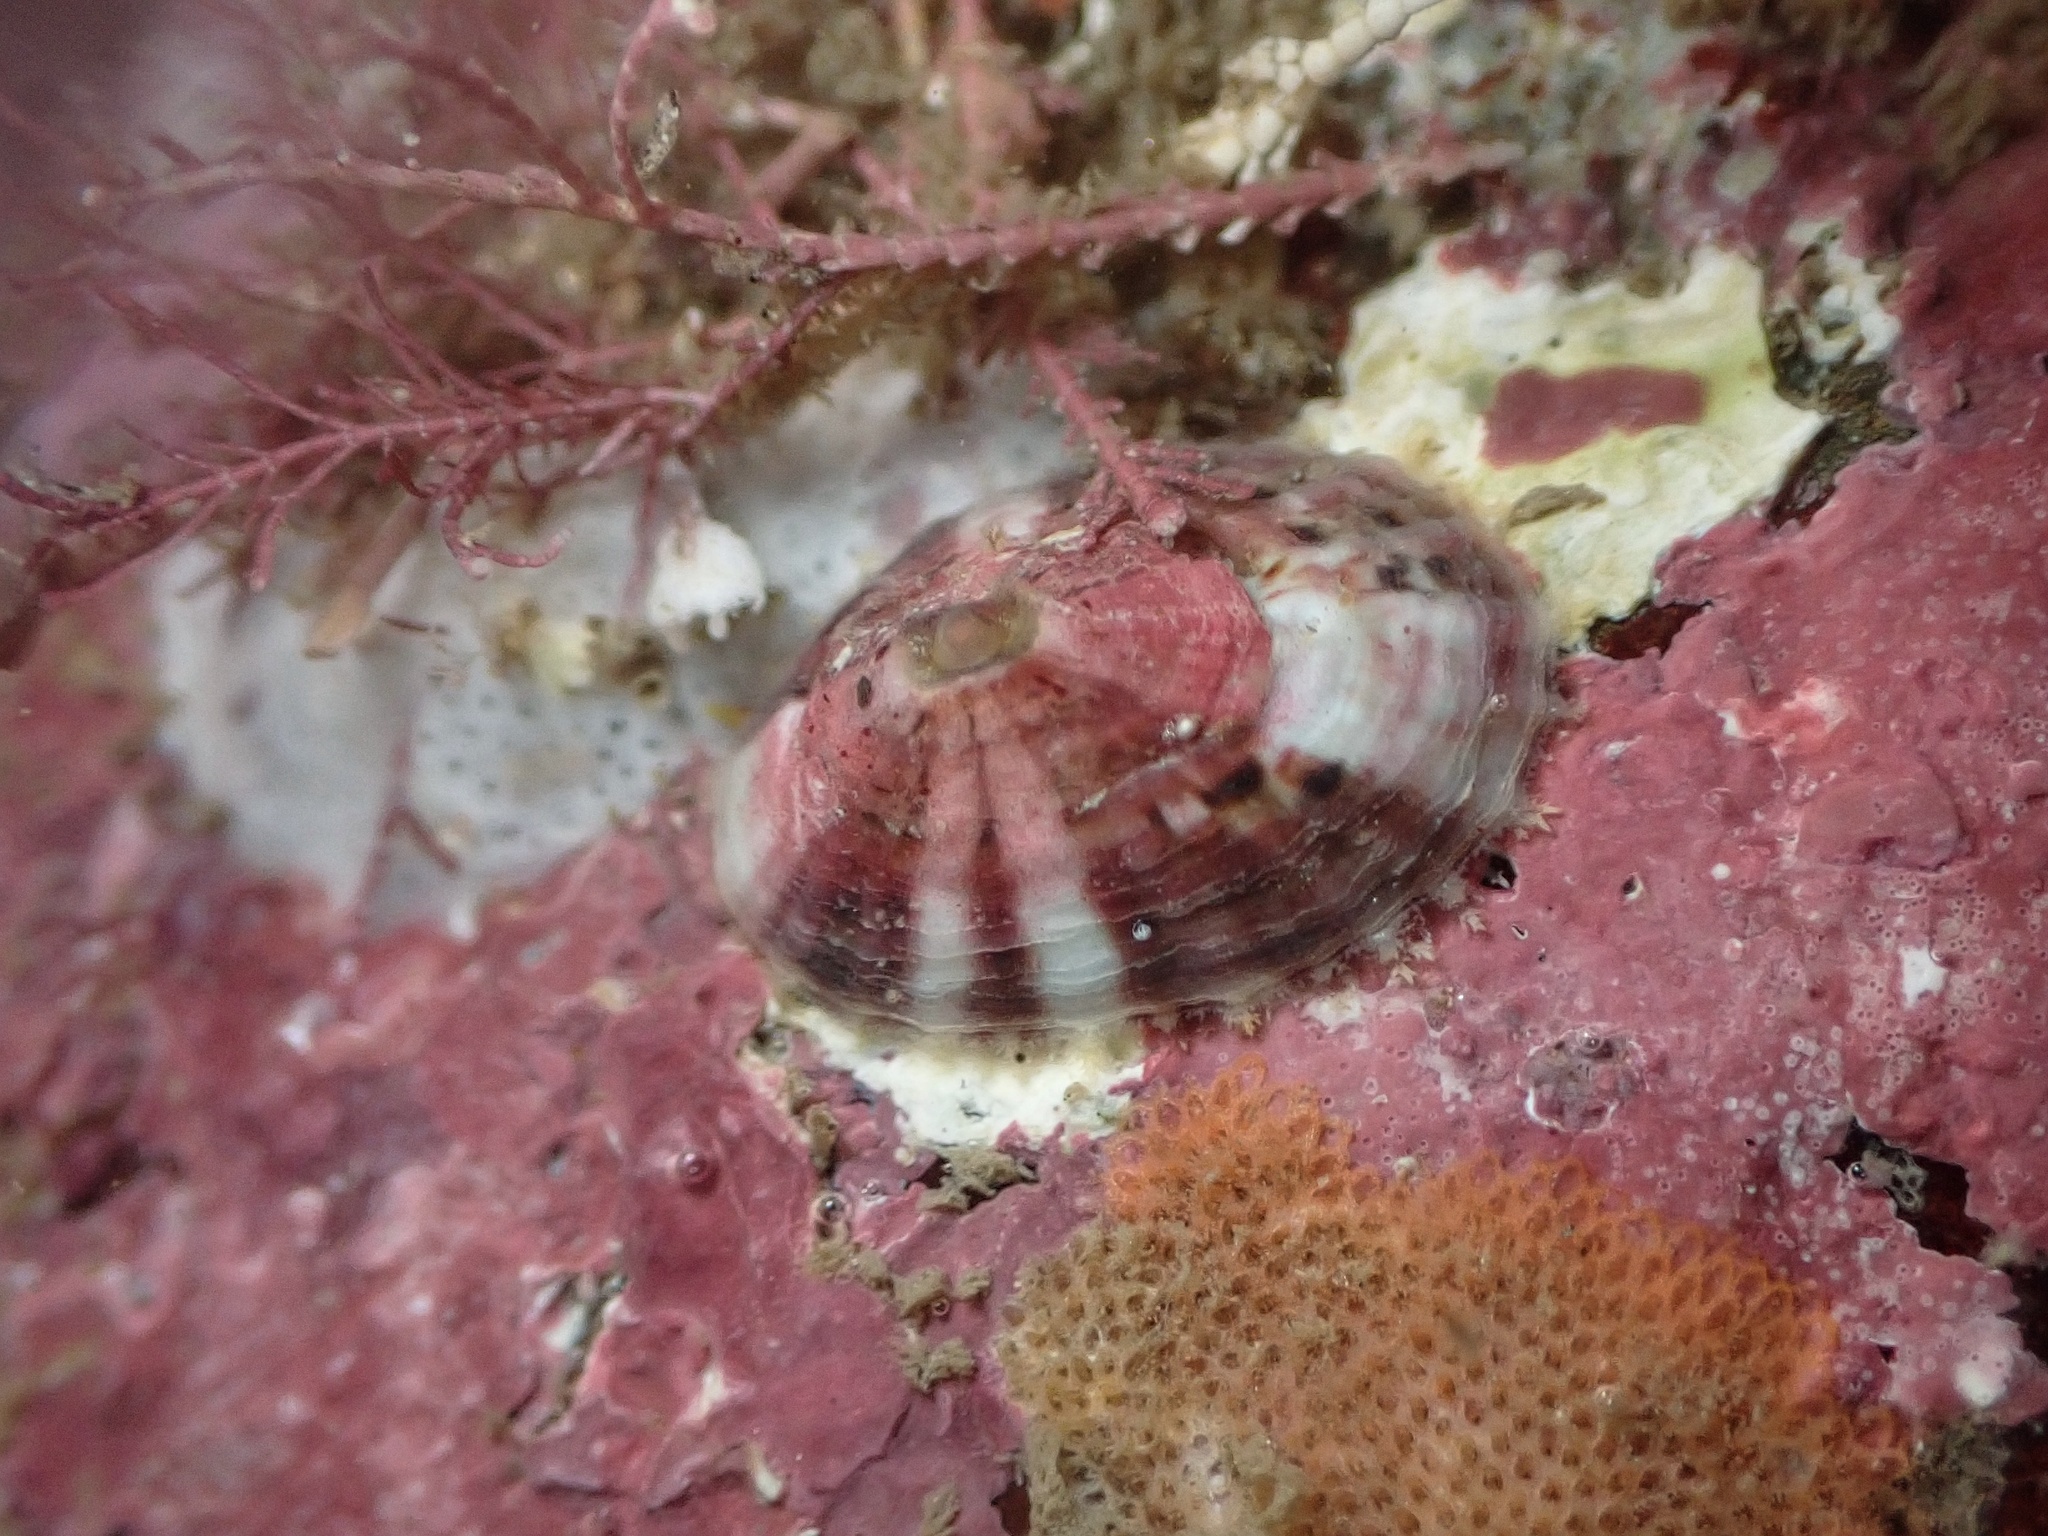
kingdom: Animalia
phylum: Mollusca
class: Gastropoda
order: Lepetellida
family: Fissurellidae
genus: Fissurella
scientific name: Fissurella volcano
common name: Volcano keyhole limpet
